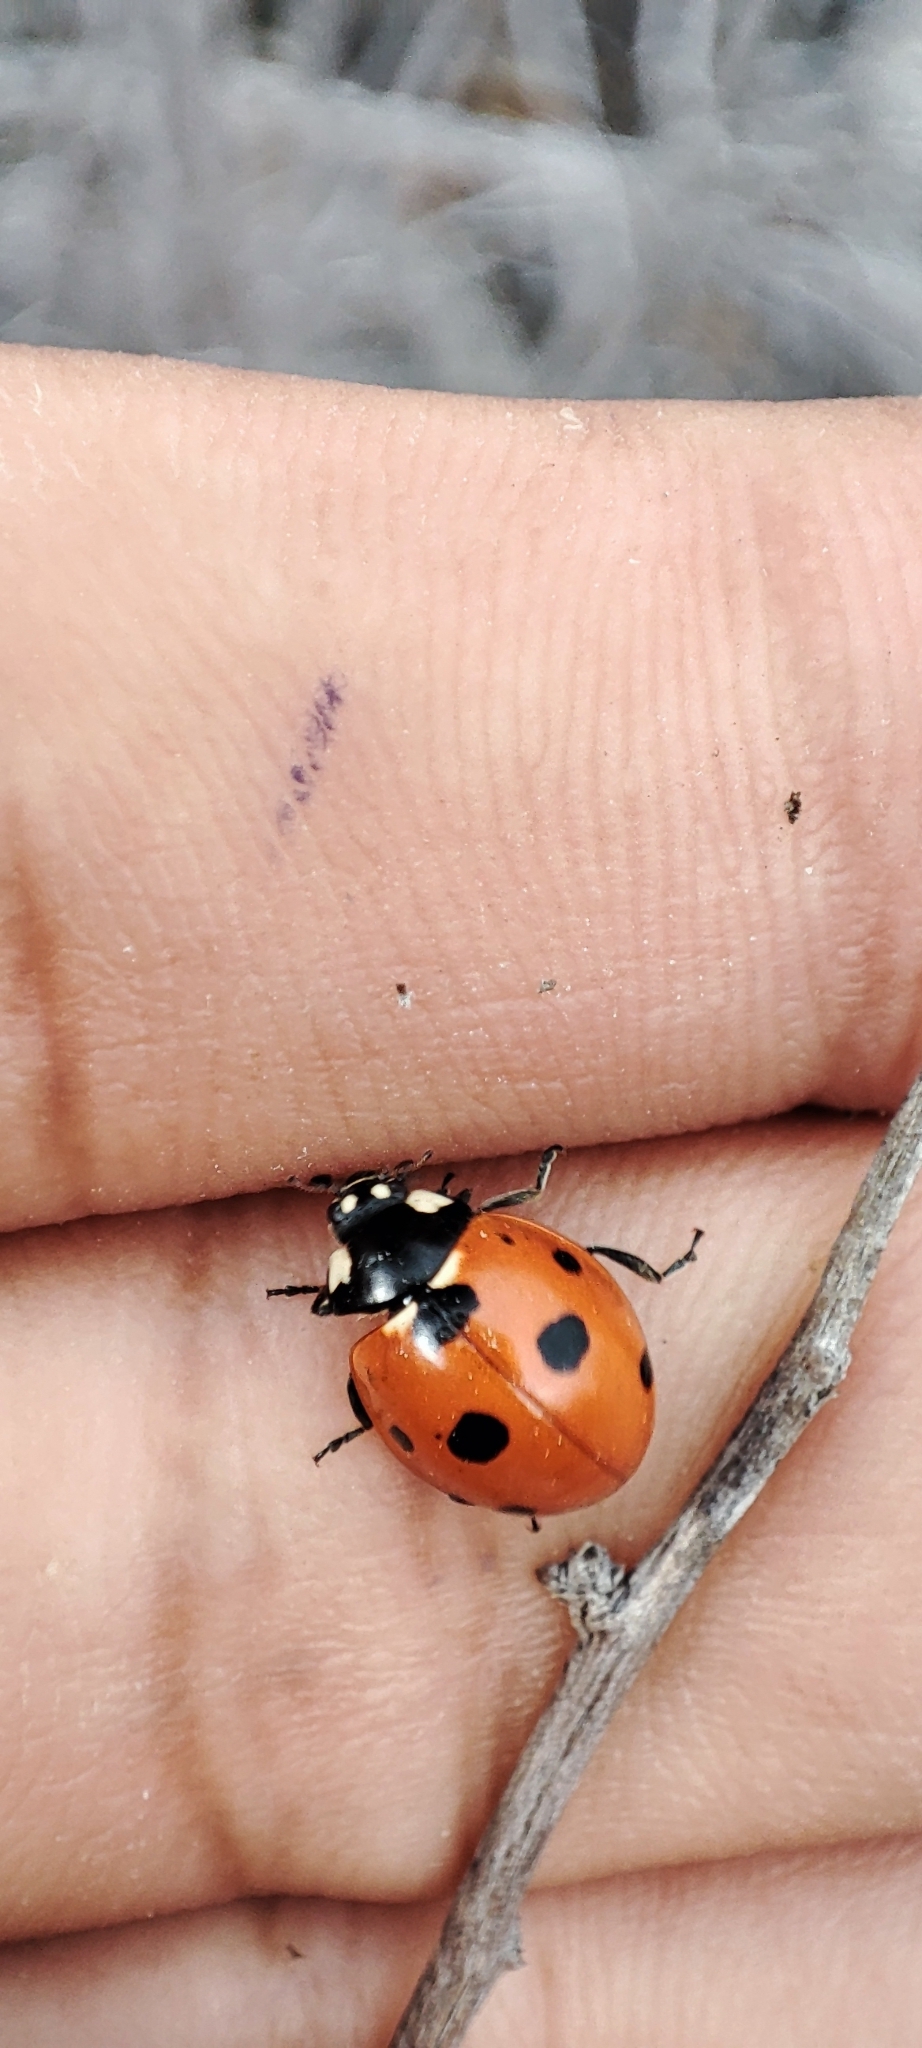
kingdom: Animalia
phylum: Arthropoda
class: Insecta
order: Coleoptera
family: Coccinellidae
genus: Coccinella
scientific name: Coccinella septempunctata
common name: Sevenspotted lady beetle
